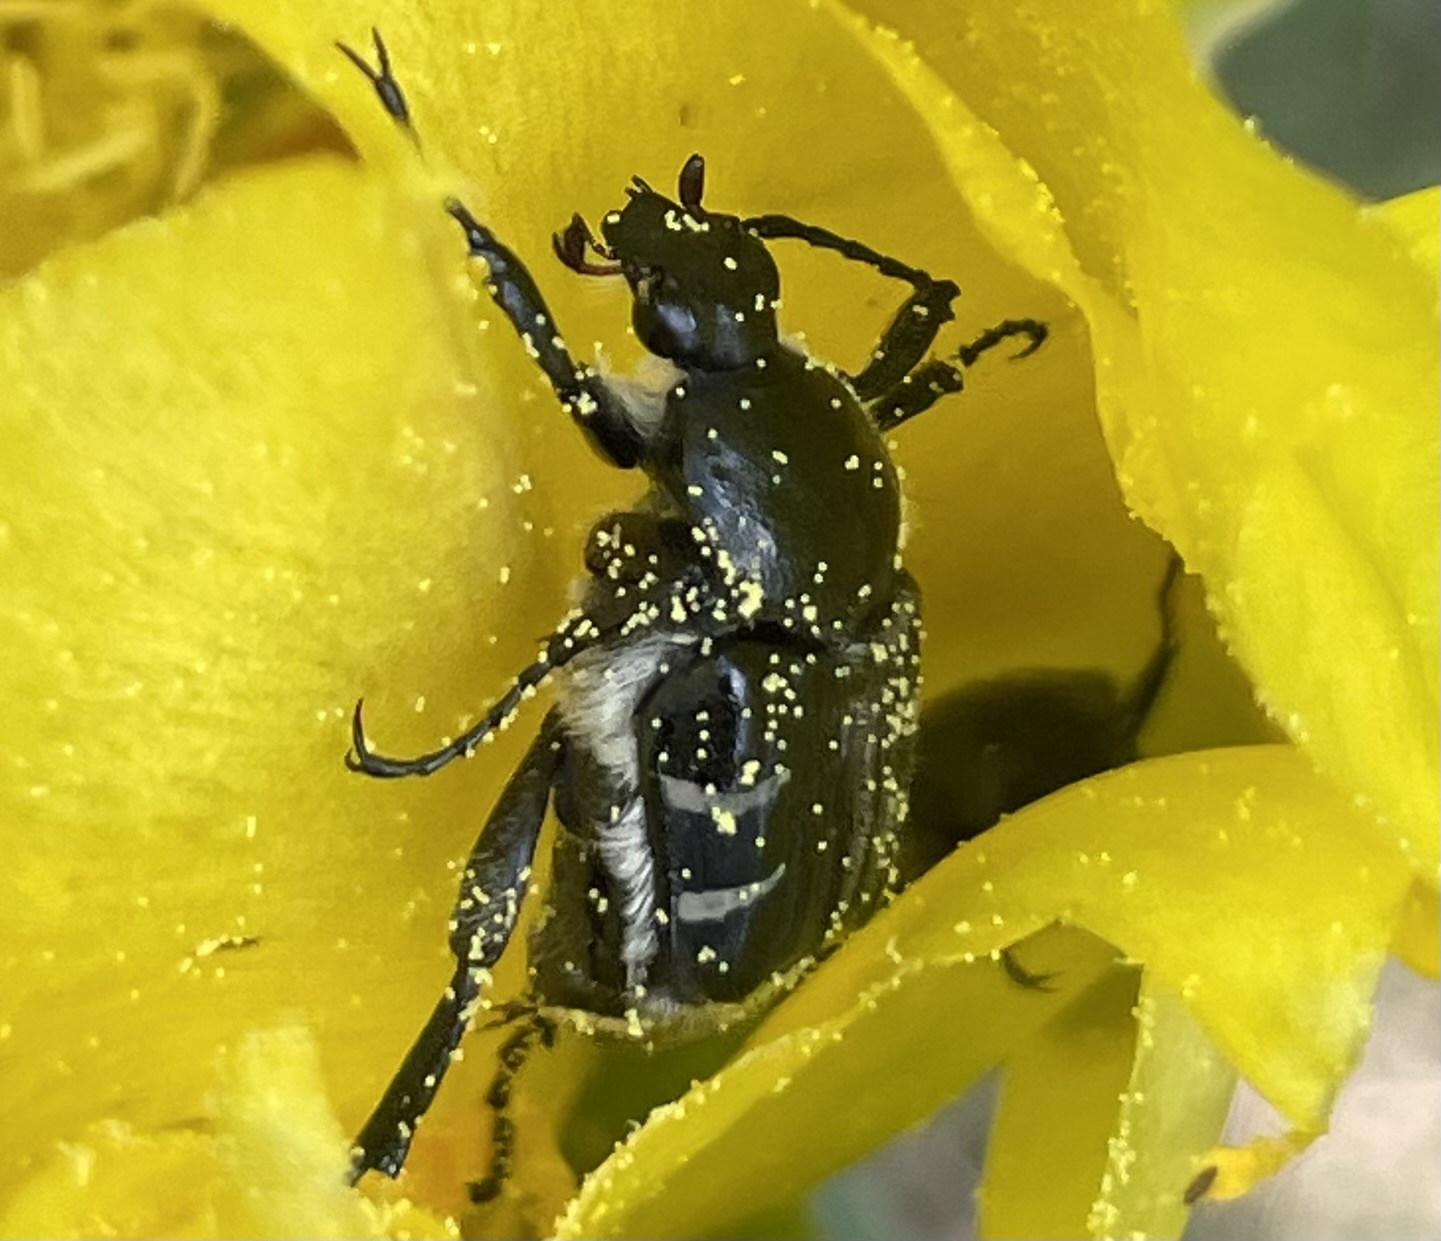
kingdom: Animalia
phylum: Arthropoda
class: Insecta
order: Coleoptera
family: Scarabaeidae
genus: Trichiotinus
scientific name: Trichiotinus texanus
